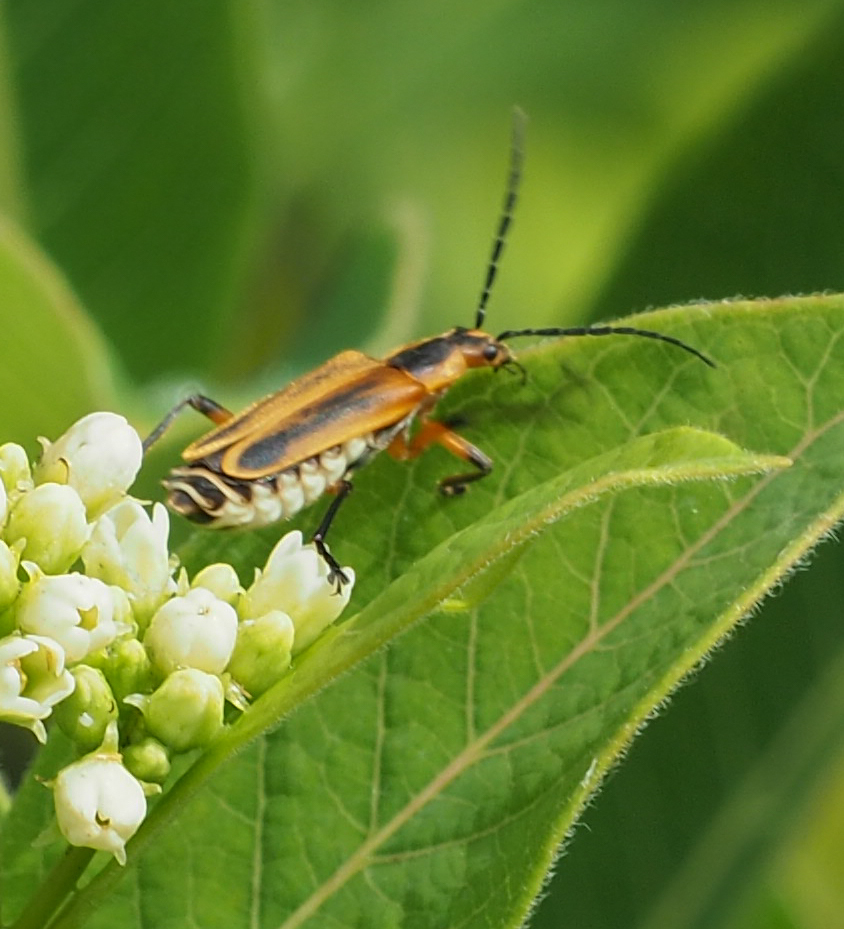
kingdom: Animalia
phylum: Arthropoda
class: Insecta
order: Coleoptera
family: Cantharidae
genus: Chauliognathus
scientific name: Chauliognathus marginatus
